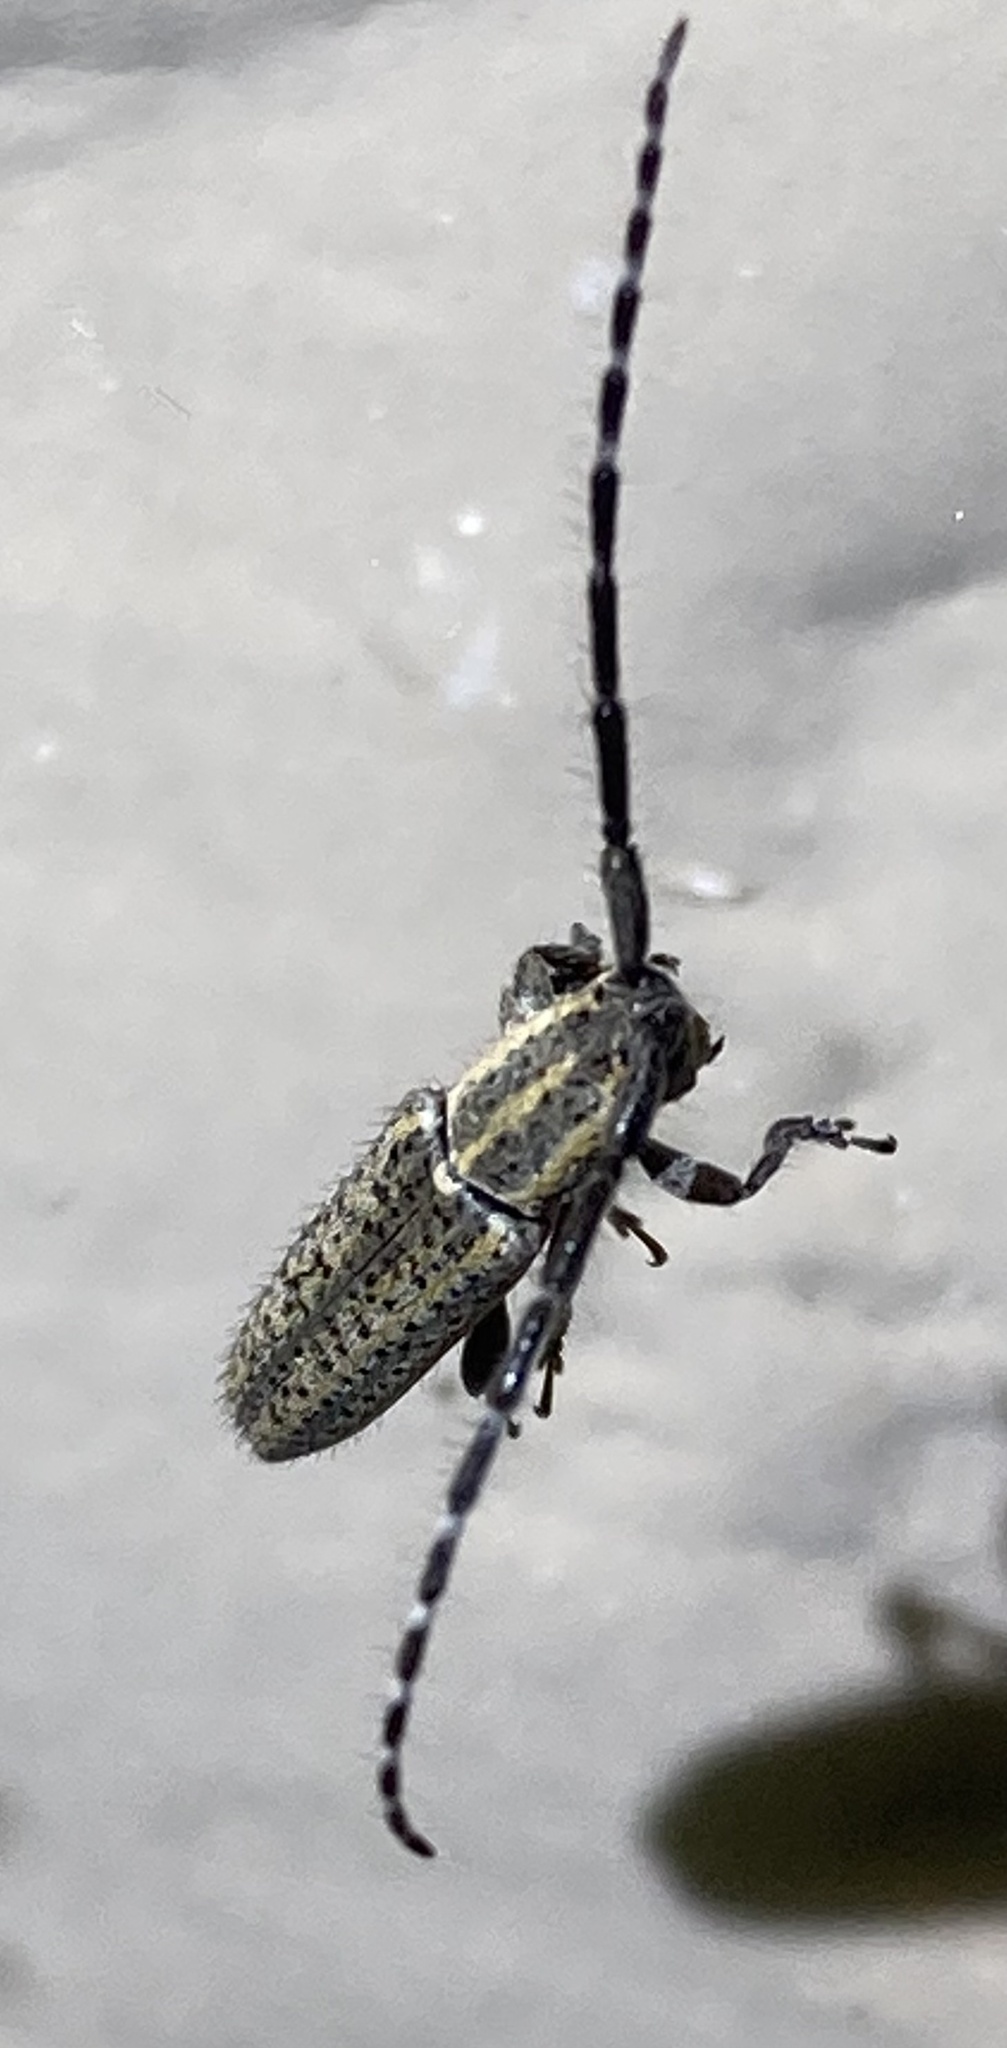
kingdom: Animalia
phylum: Arthropoda
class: Insecta
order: Coleoptera
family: Cerambycidae
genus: Dorcasta
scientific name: Dorcasta cinerea
